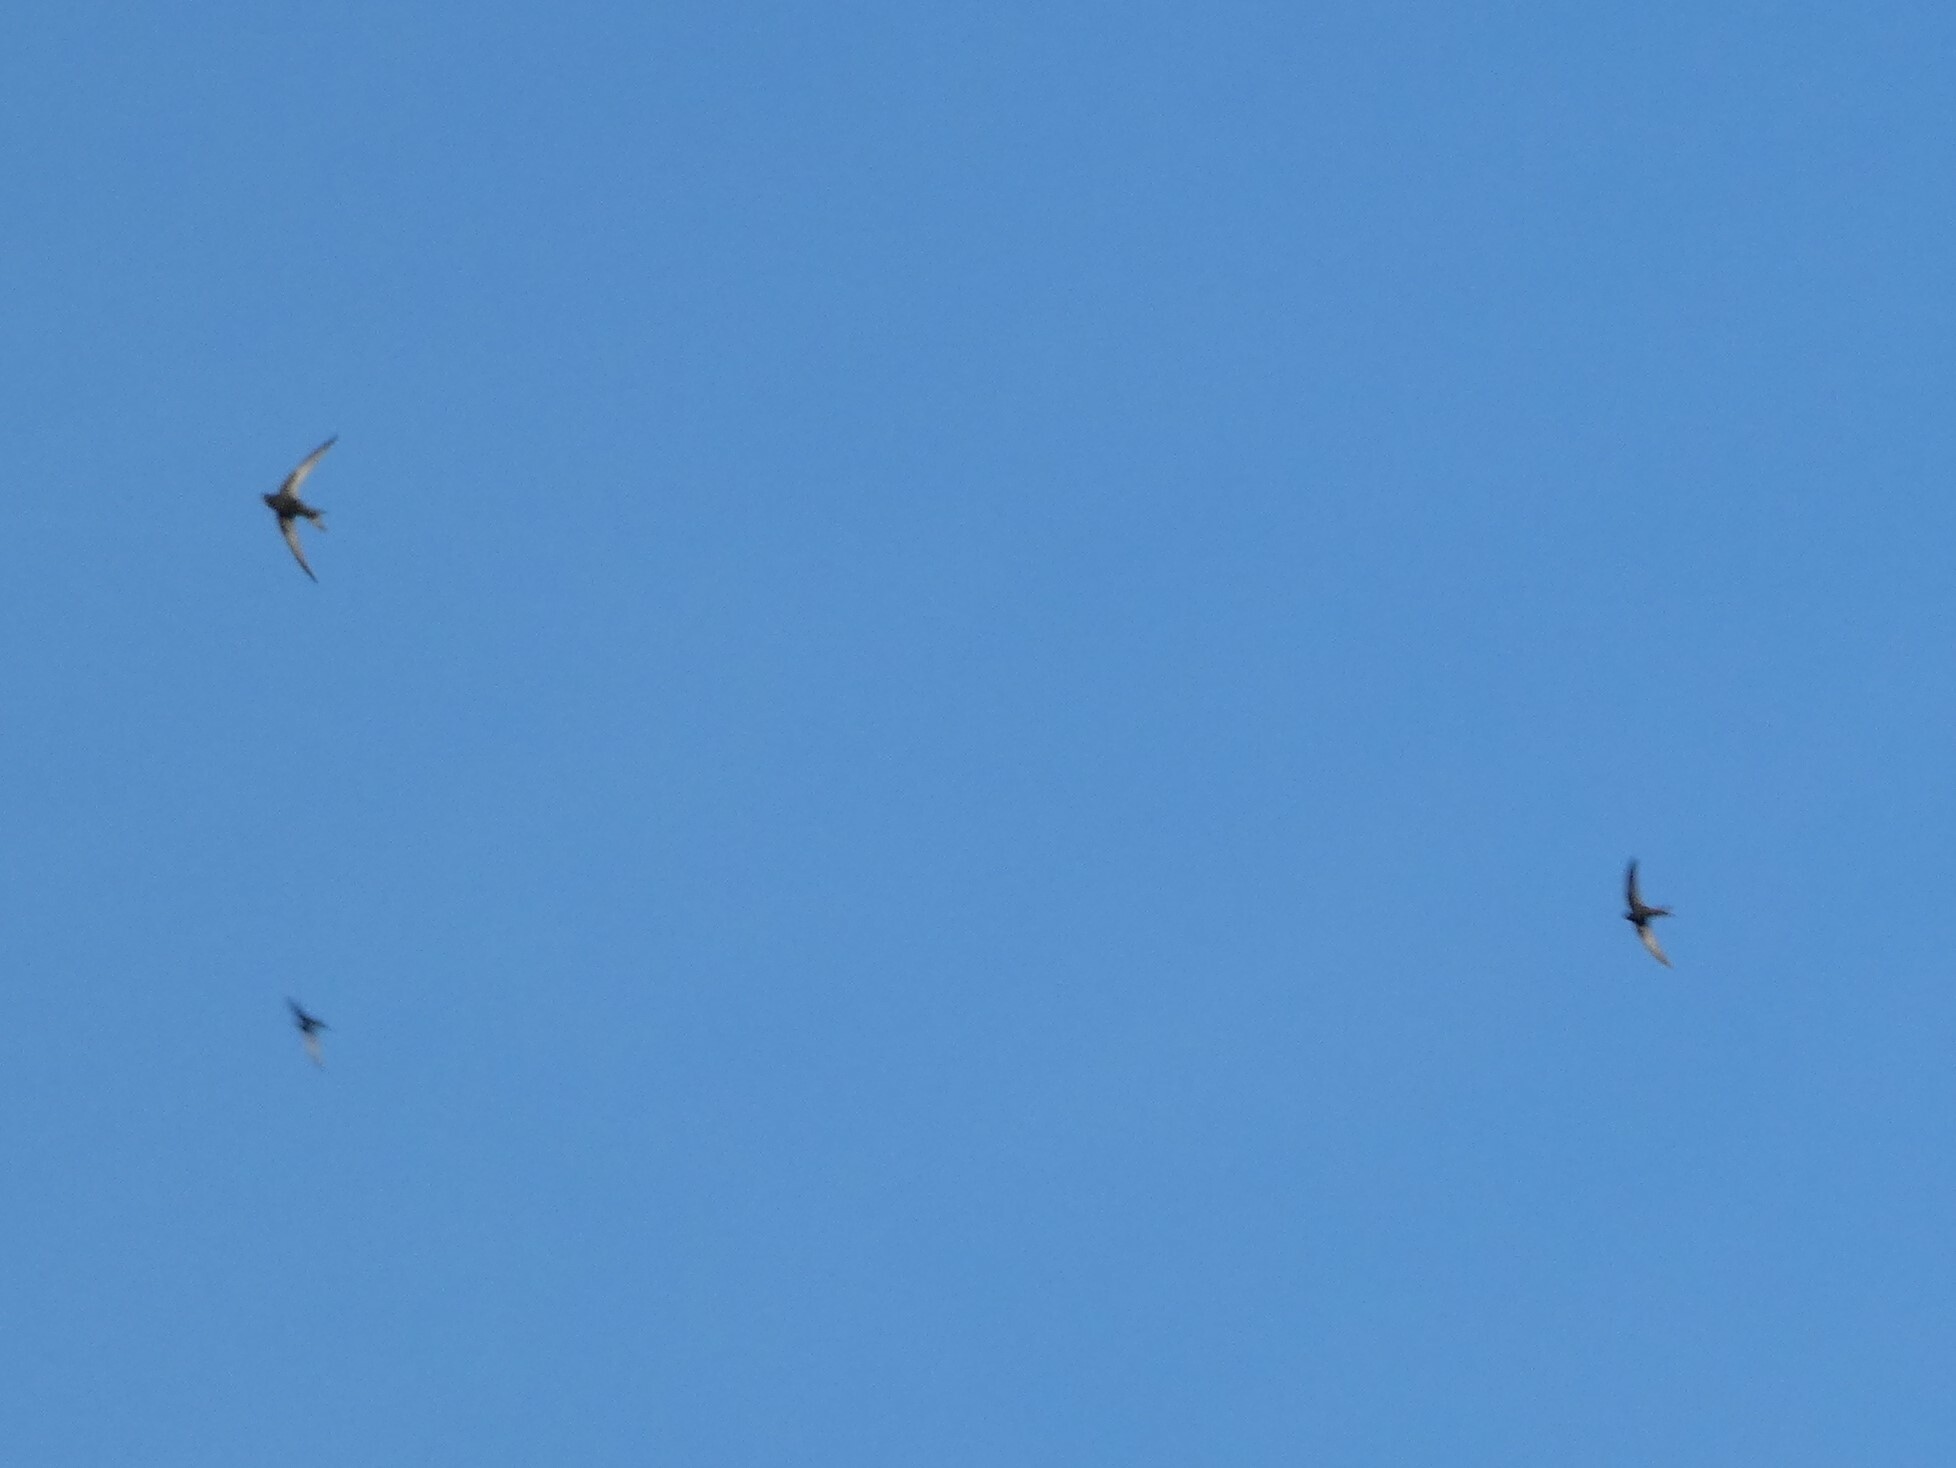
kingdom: Animalia
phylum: Chordata
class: Aves
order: Apodiformes
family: Apodidae
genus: Apus
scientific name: Apus apus
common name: Common swift
